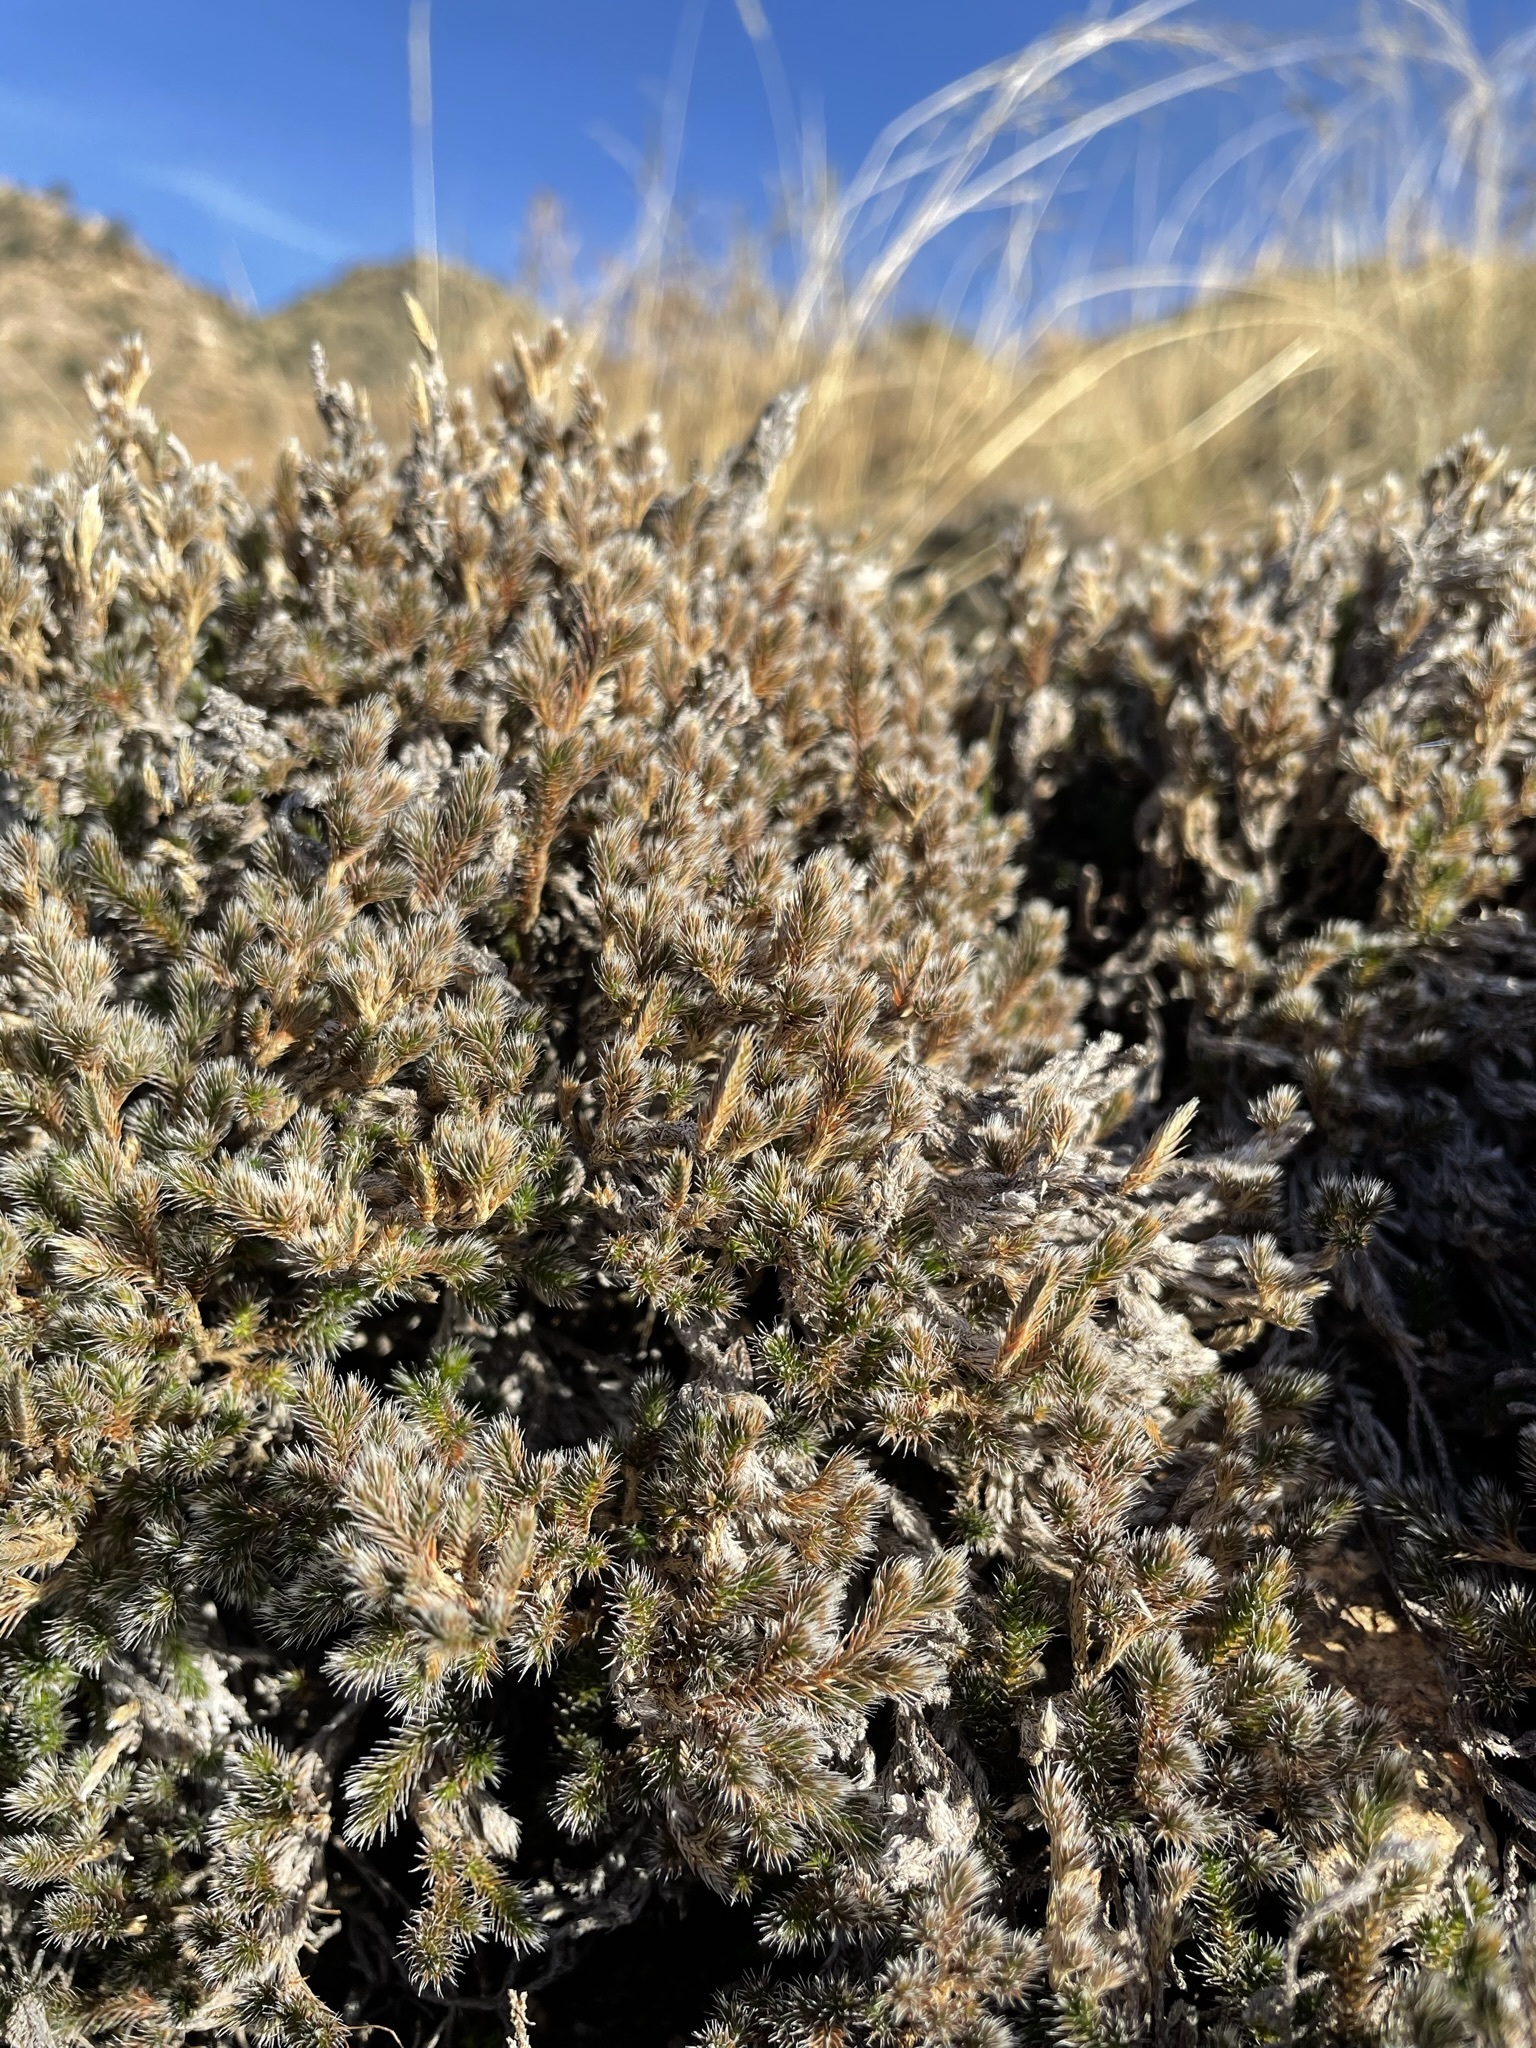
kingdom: Plantae
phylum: Tracheophyta
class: Lycopodiopsida
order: Selaginellales
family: Selaginellaceae
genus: Selaginella
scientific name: Selaginella rupincola
